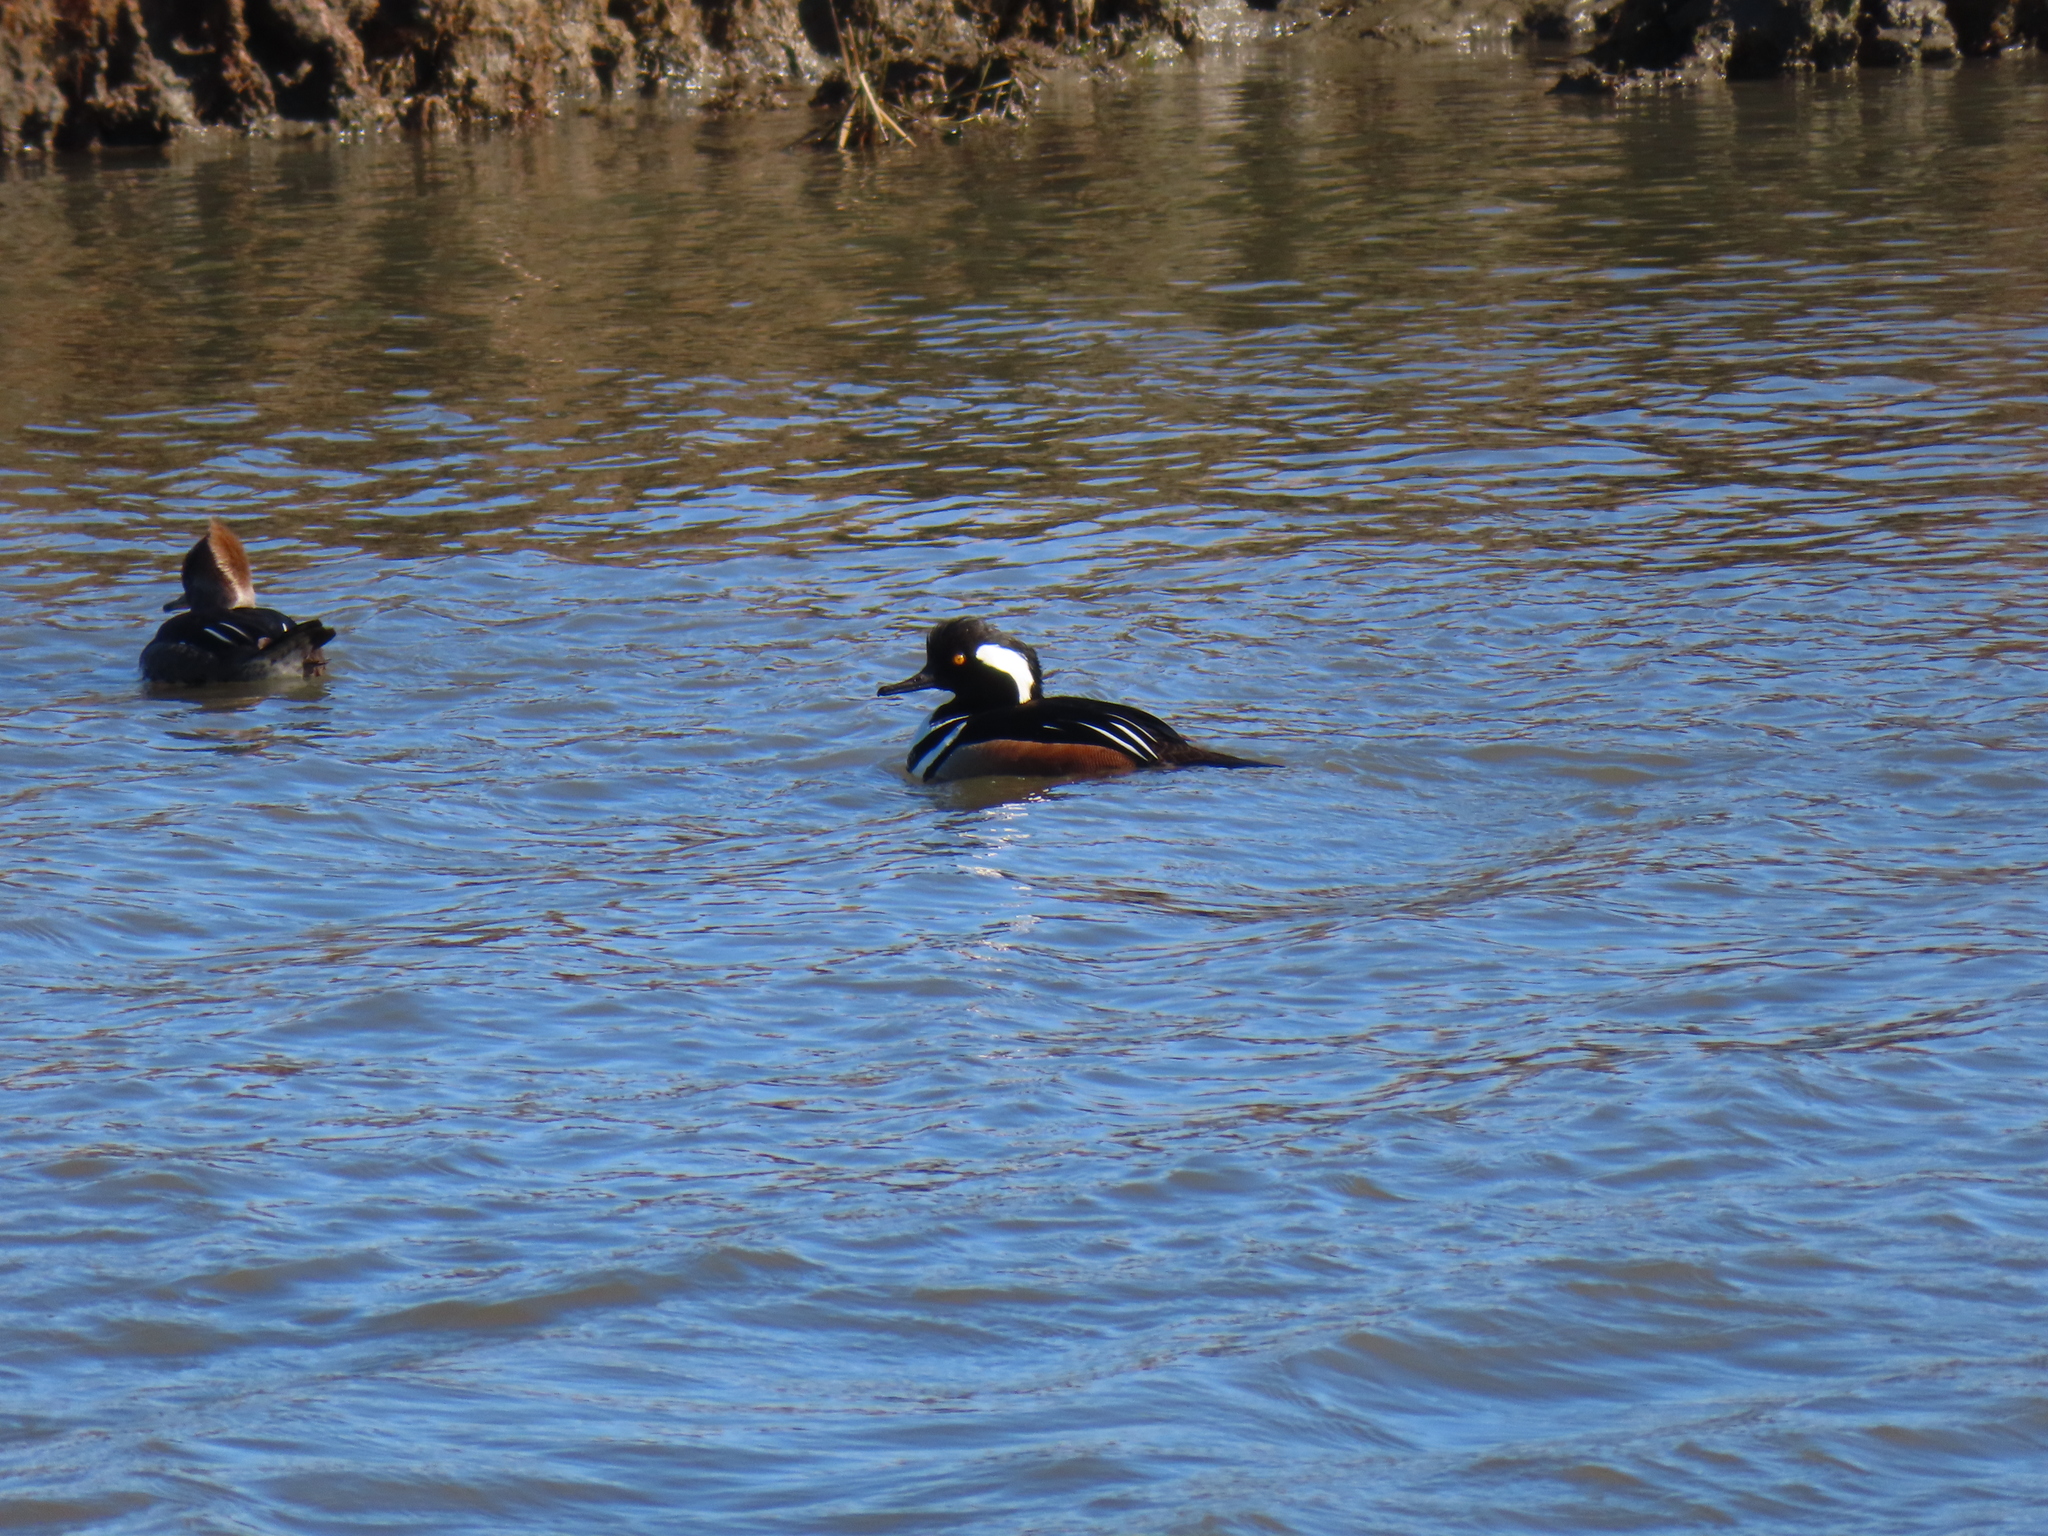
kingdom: Animalia
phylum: Chordata
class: Aves
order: Anseriformes
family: Anatidae
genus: Lophodytes
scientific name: Lophodytes cucullatus
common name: Hooded merganser
